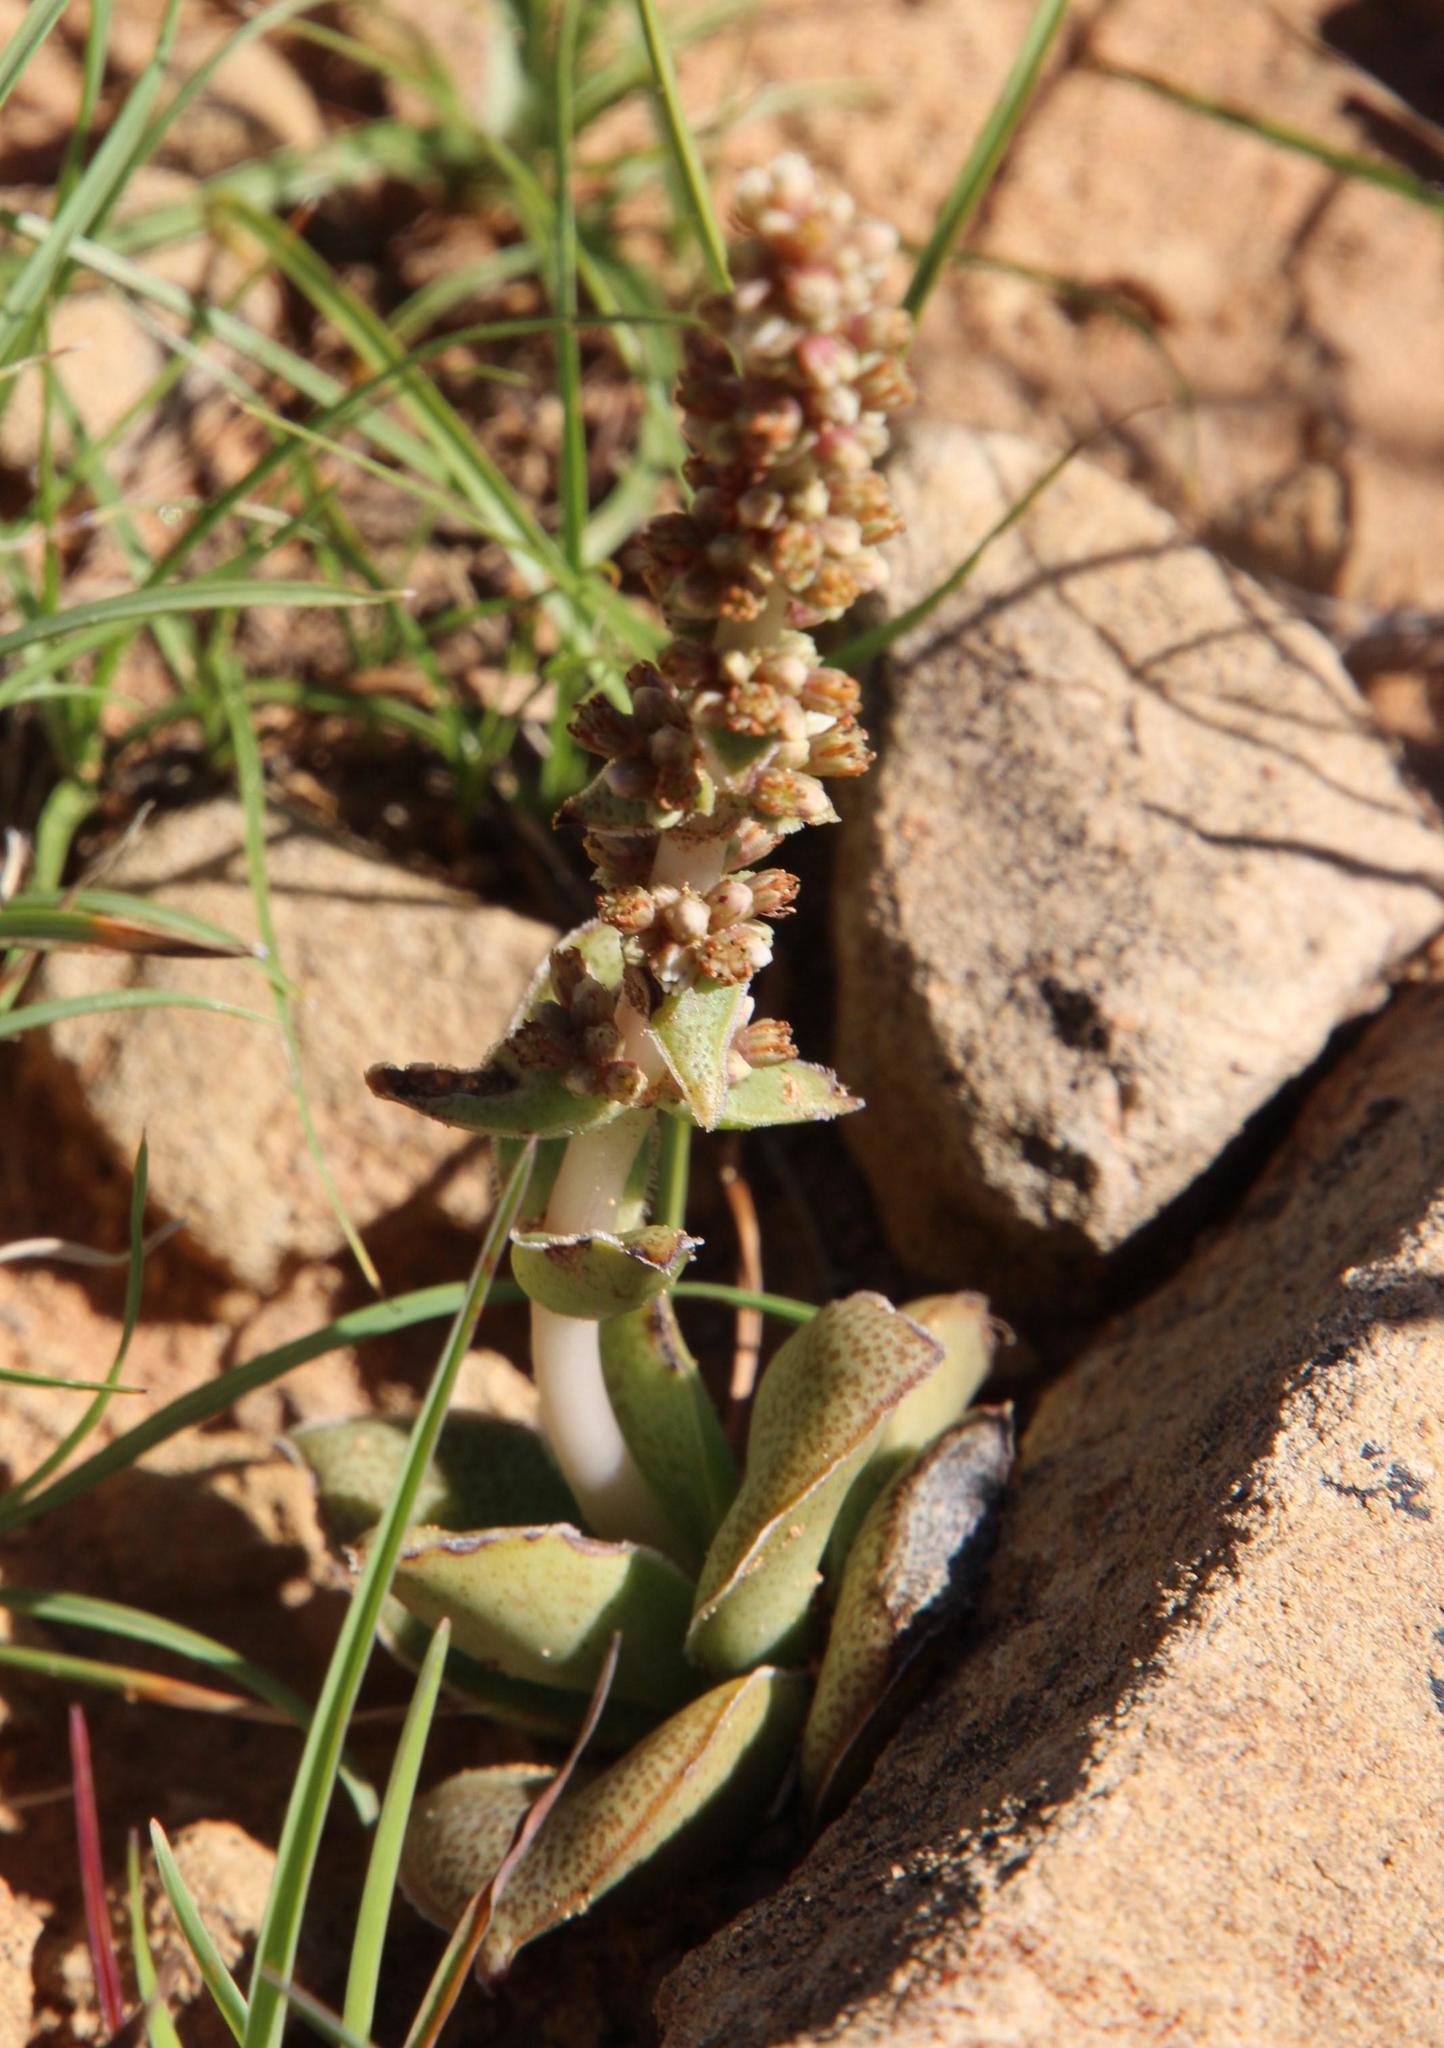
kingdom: Plantae
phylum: Tracheophyta
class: Magnoliopsida
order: Saxifragales
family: Crassulaceae
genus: Crassula
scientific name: Crassula capitella
